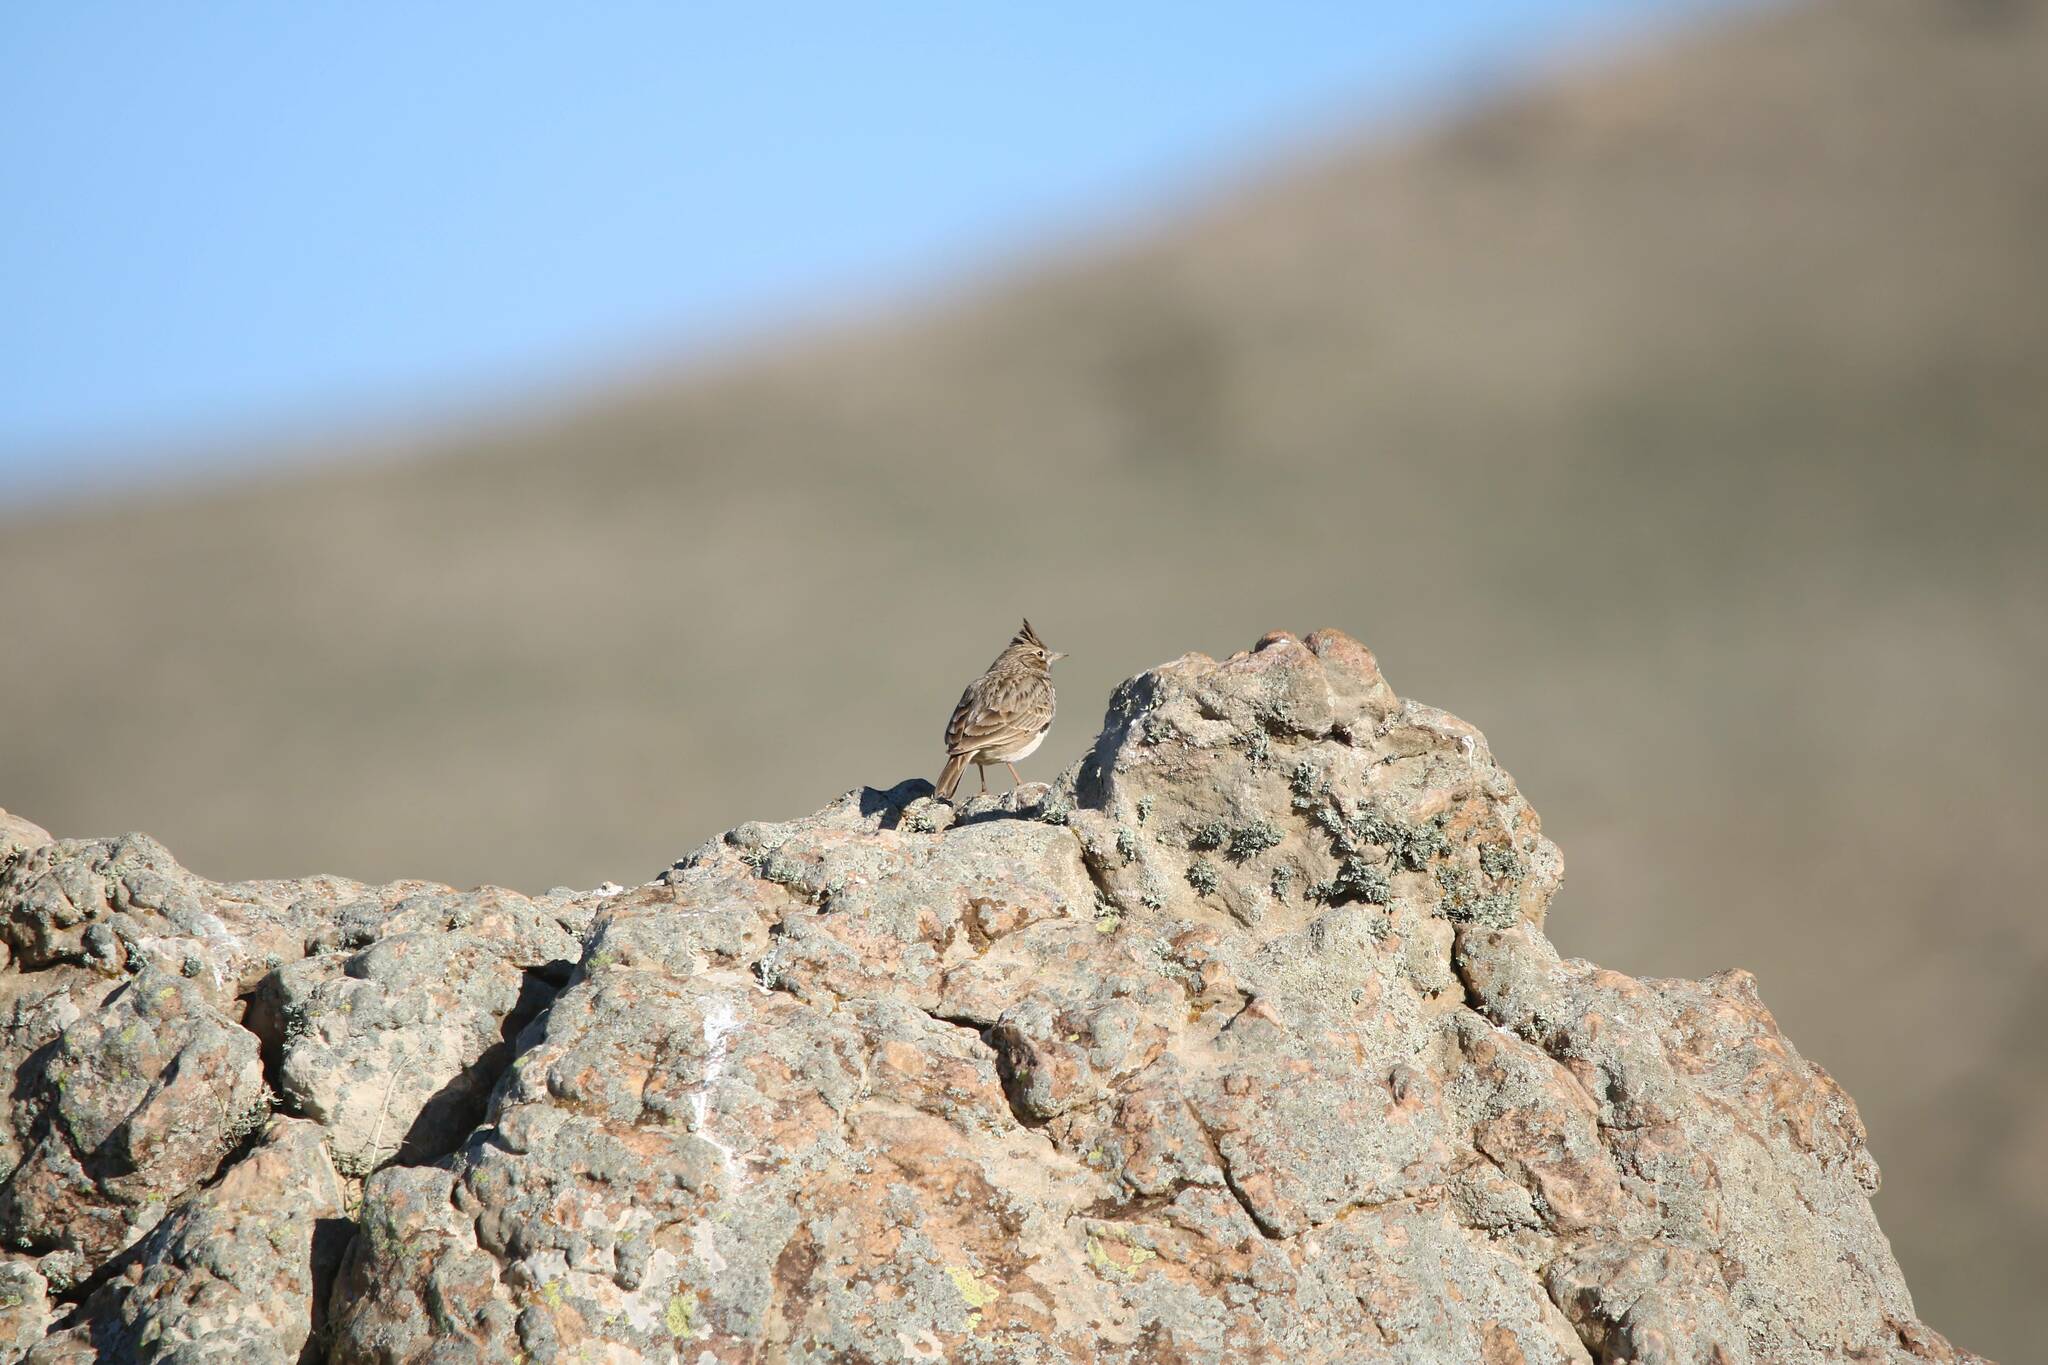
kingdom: Animalia
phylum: Chordata
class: Aves
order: Passeriformes
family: Alaudidae
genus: Galerida
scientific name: Galerida theklae
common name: Thekla lark
